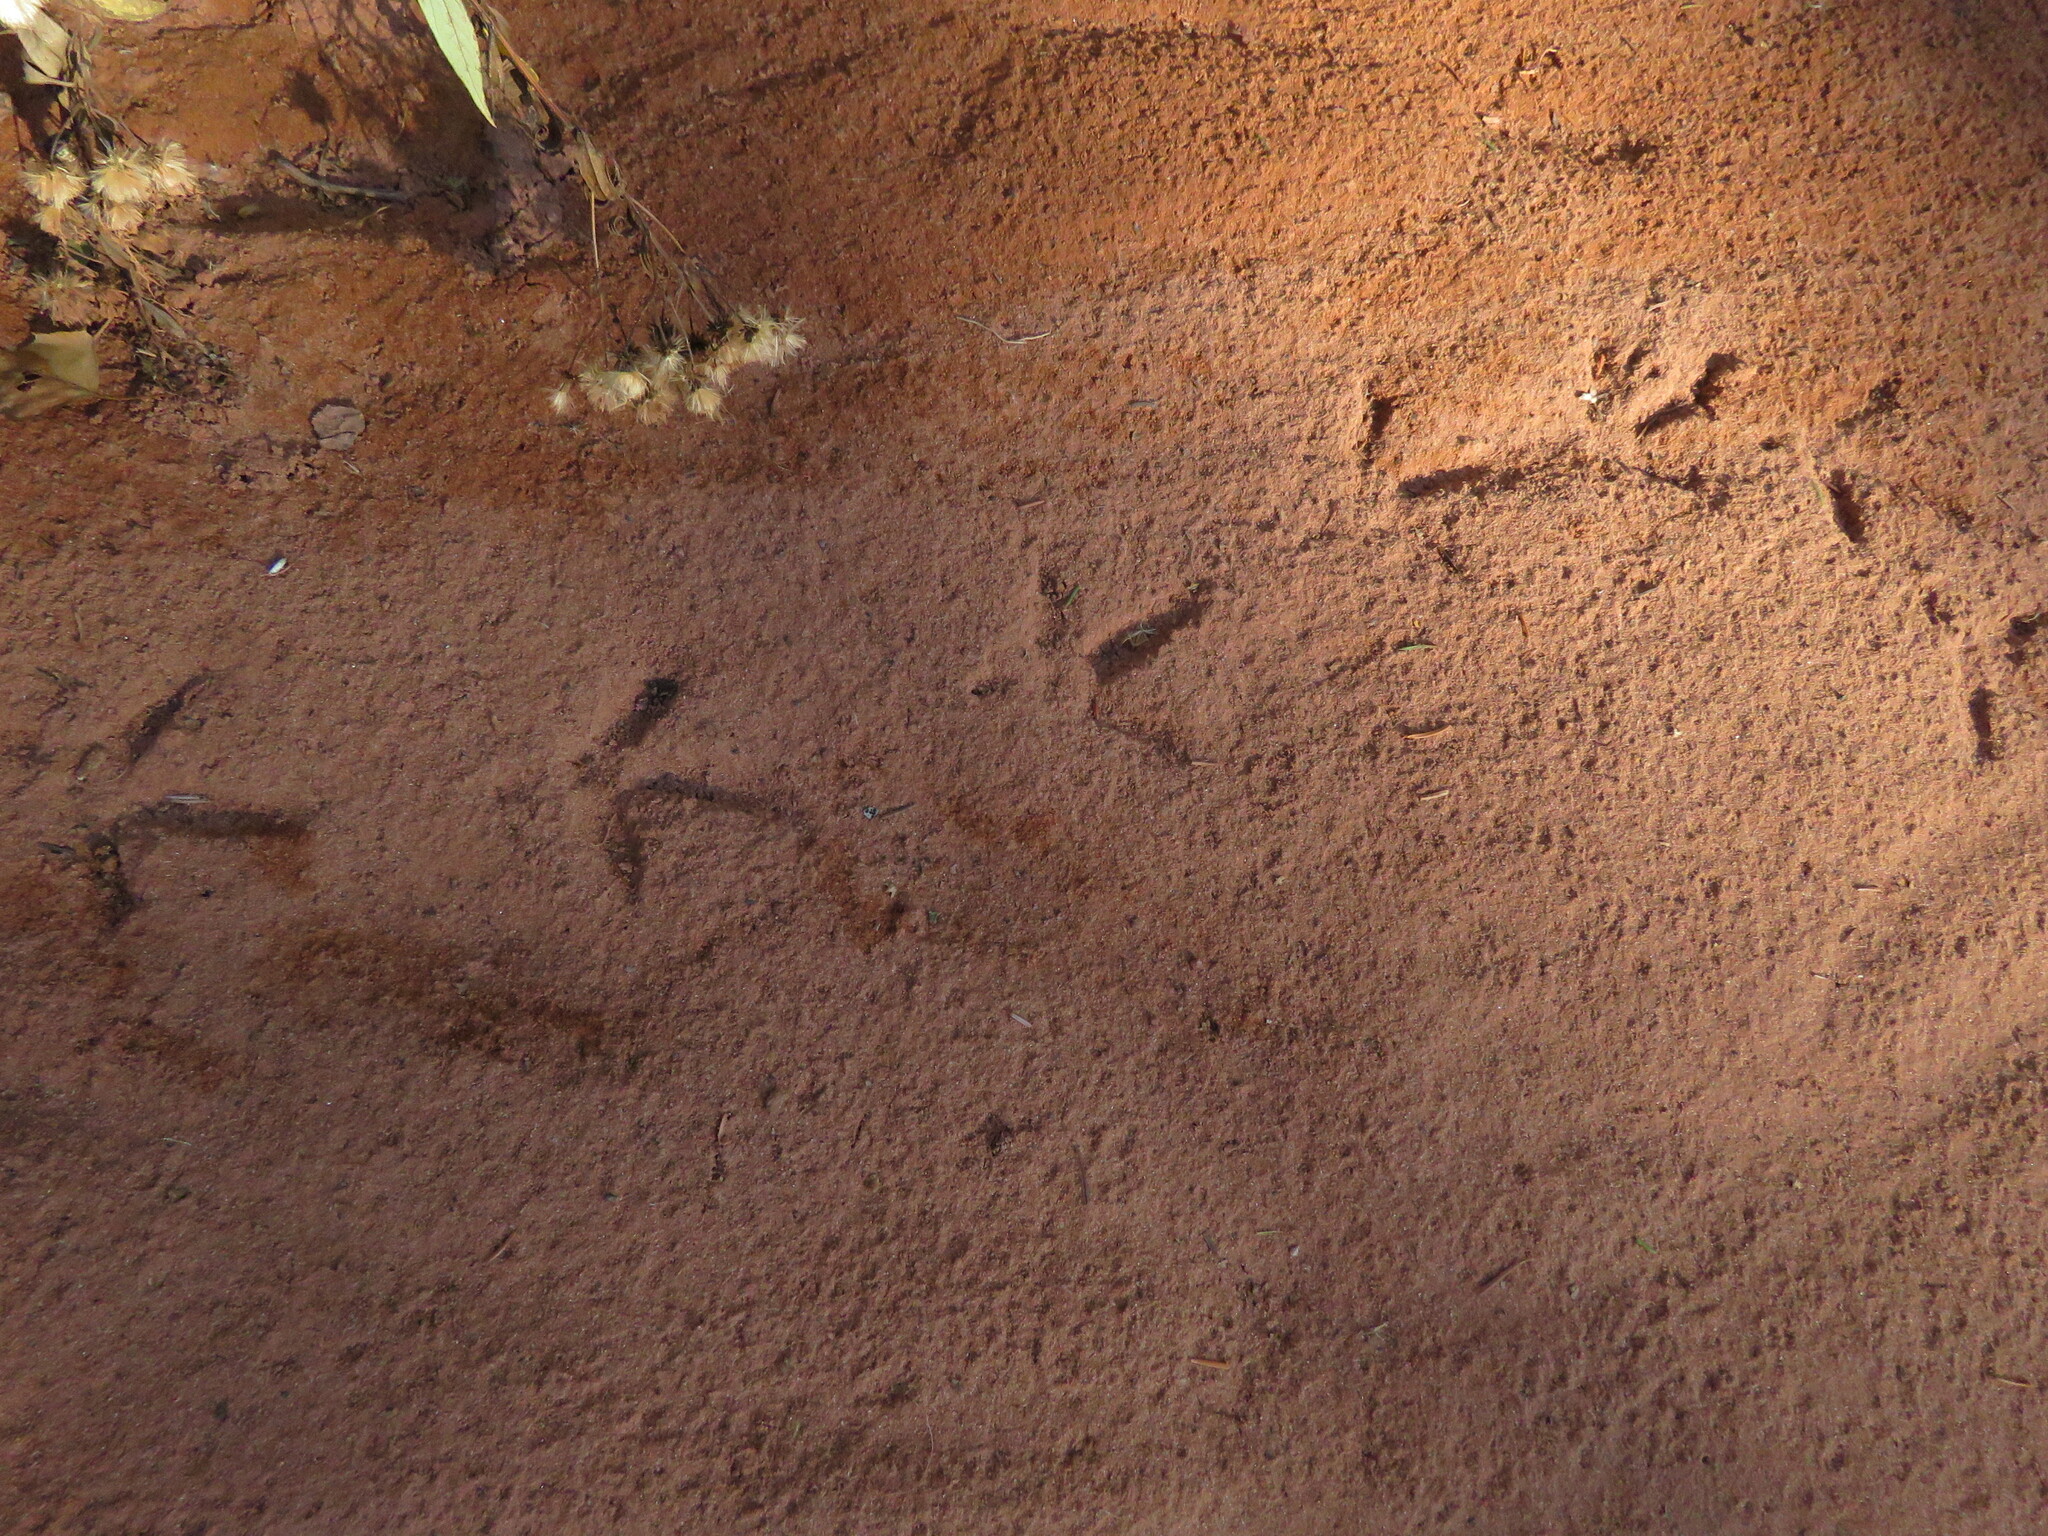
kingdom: Animalia
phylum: Chordata
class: Aves
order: Galliformes
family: Phasianidae
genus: Bonasa
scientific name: Bonasa umbellus
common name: Ruffed grouse
